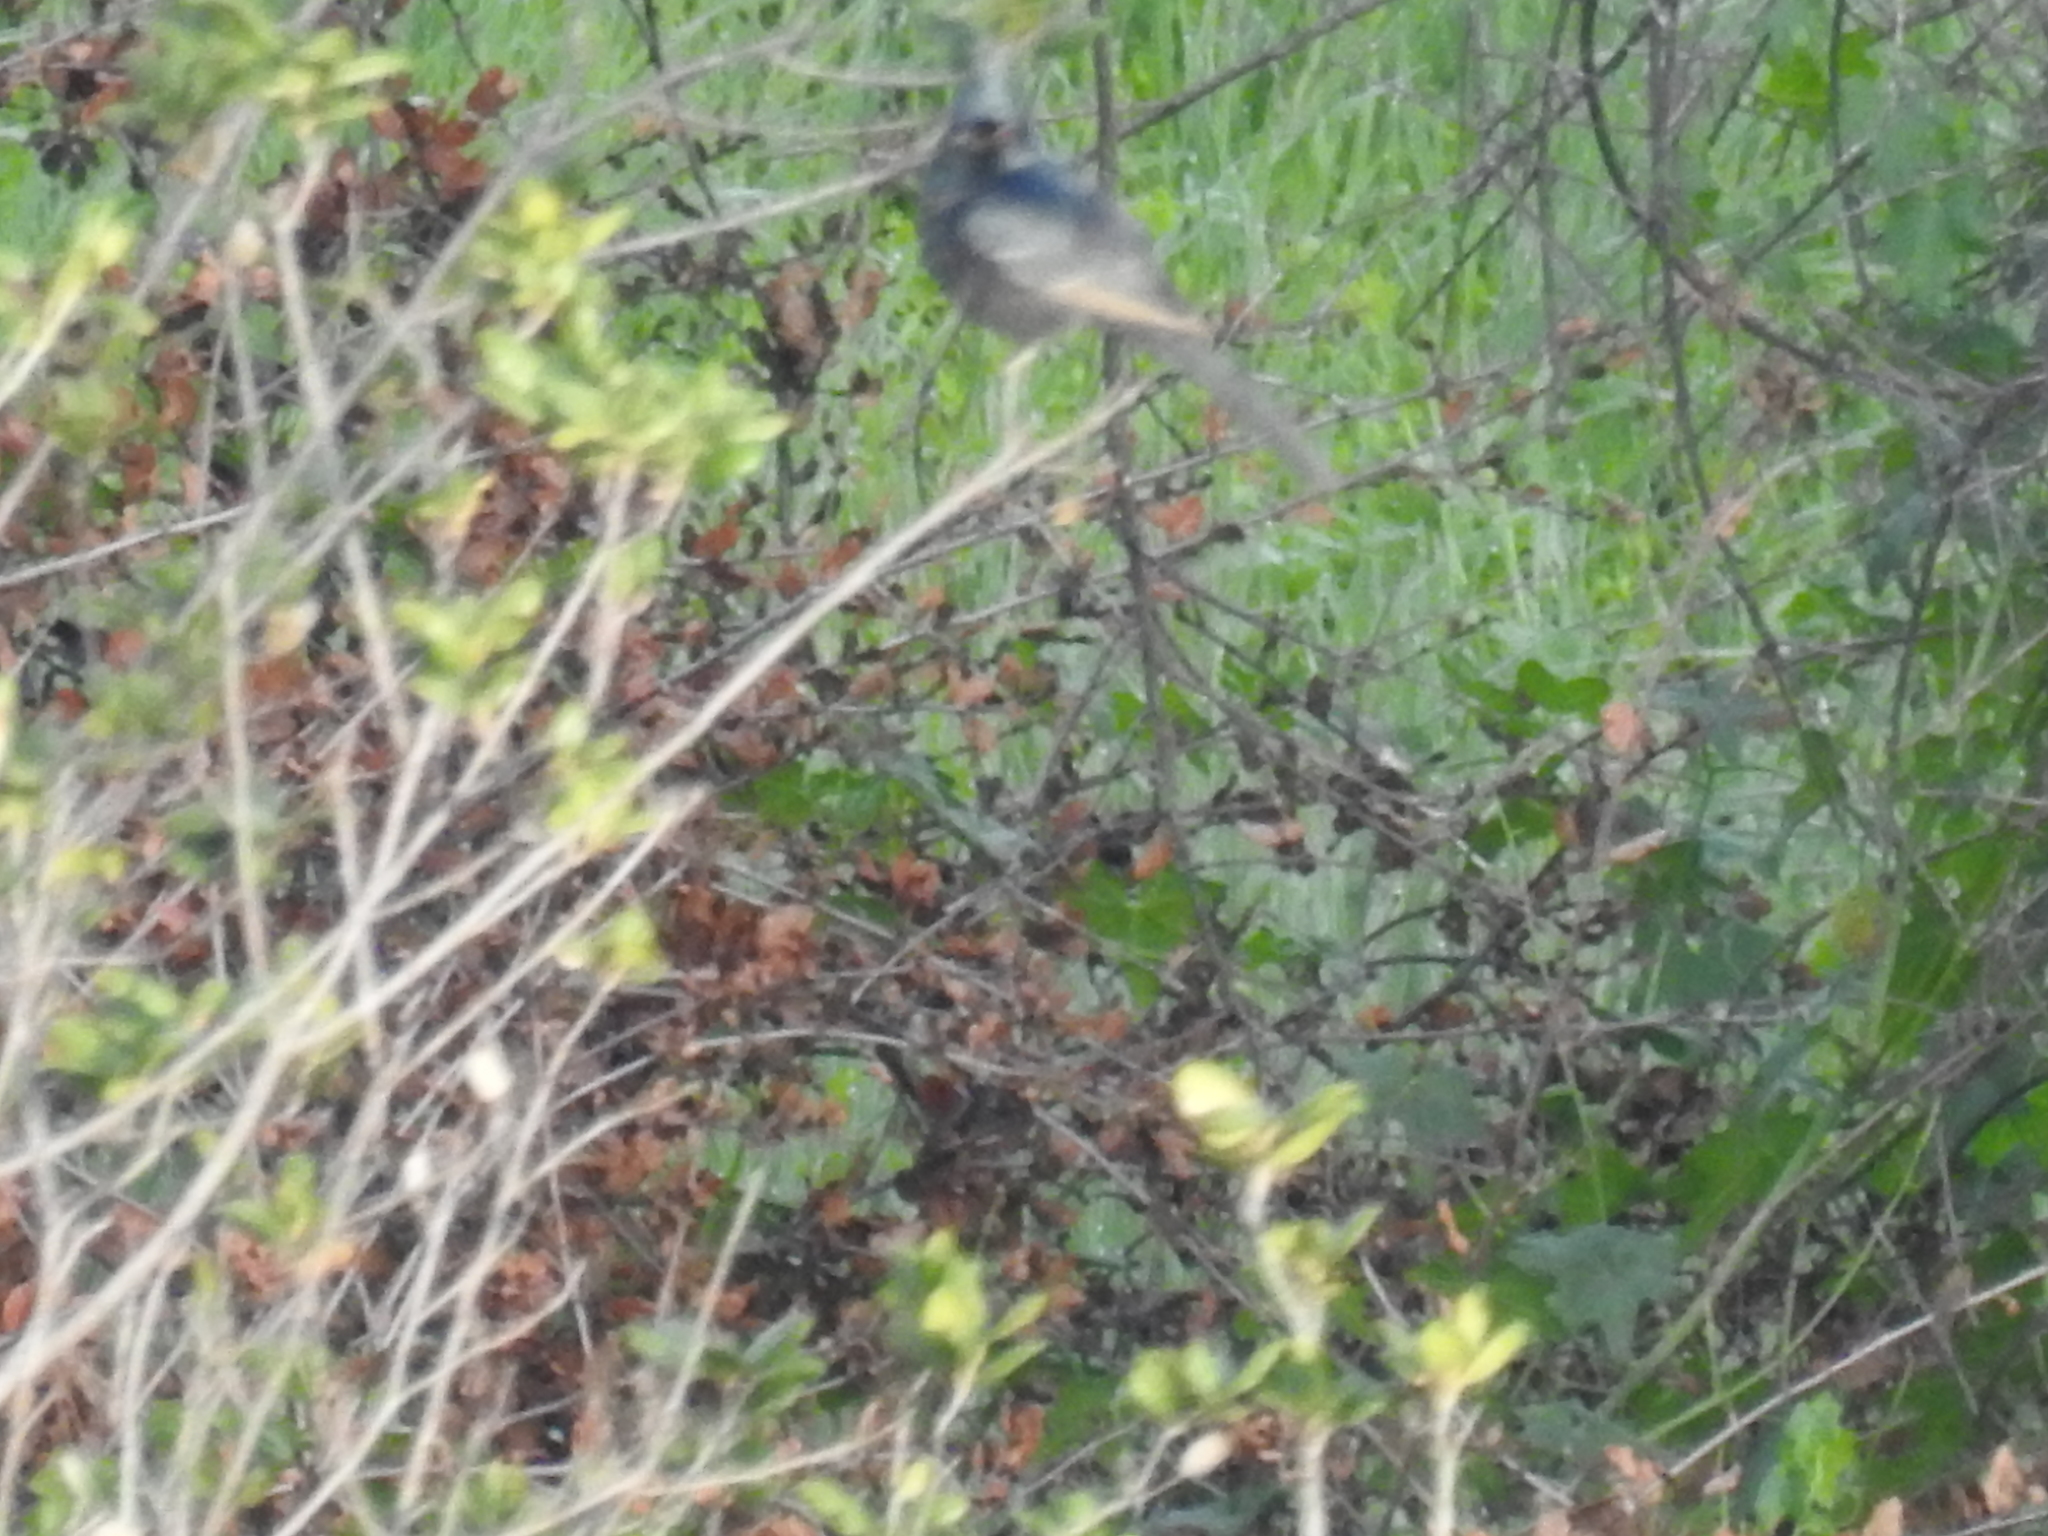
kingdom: Animalia
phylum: Chordata
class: Aves
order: Passeriformes
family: Ptilogonatidae
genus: Phainopepla
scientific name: Phainopepla nitens
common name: Phainopepla
